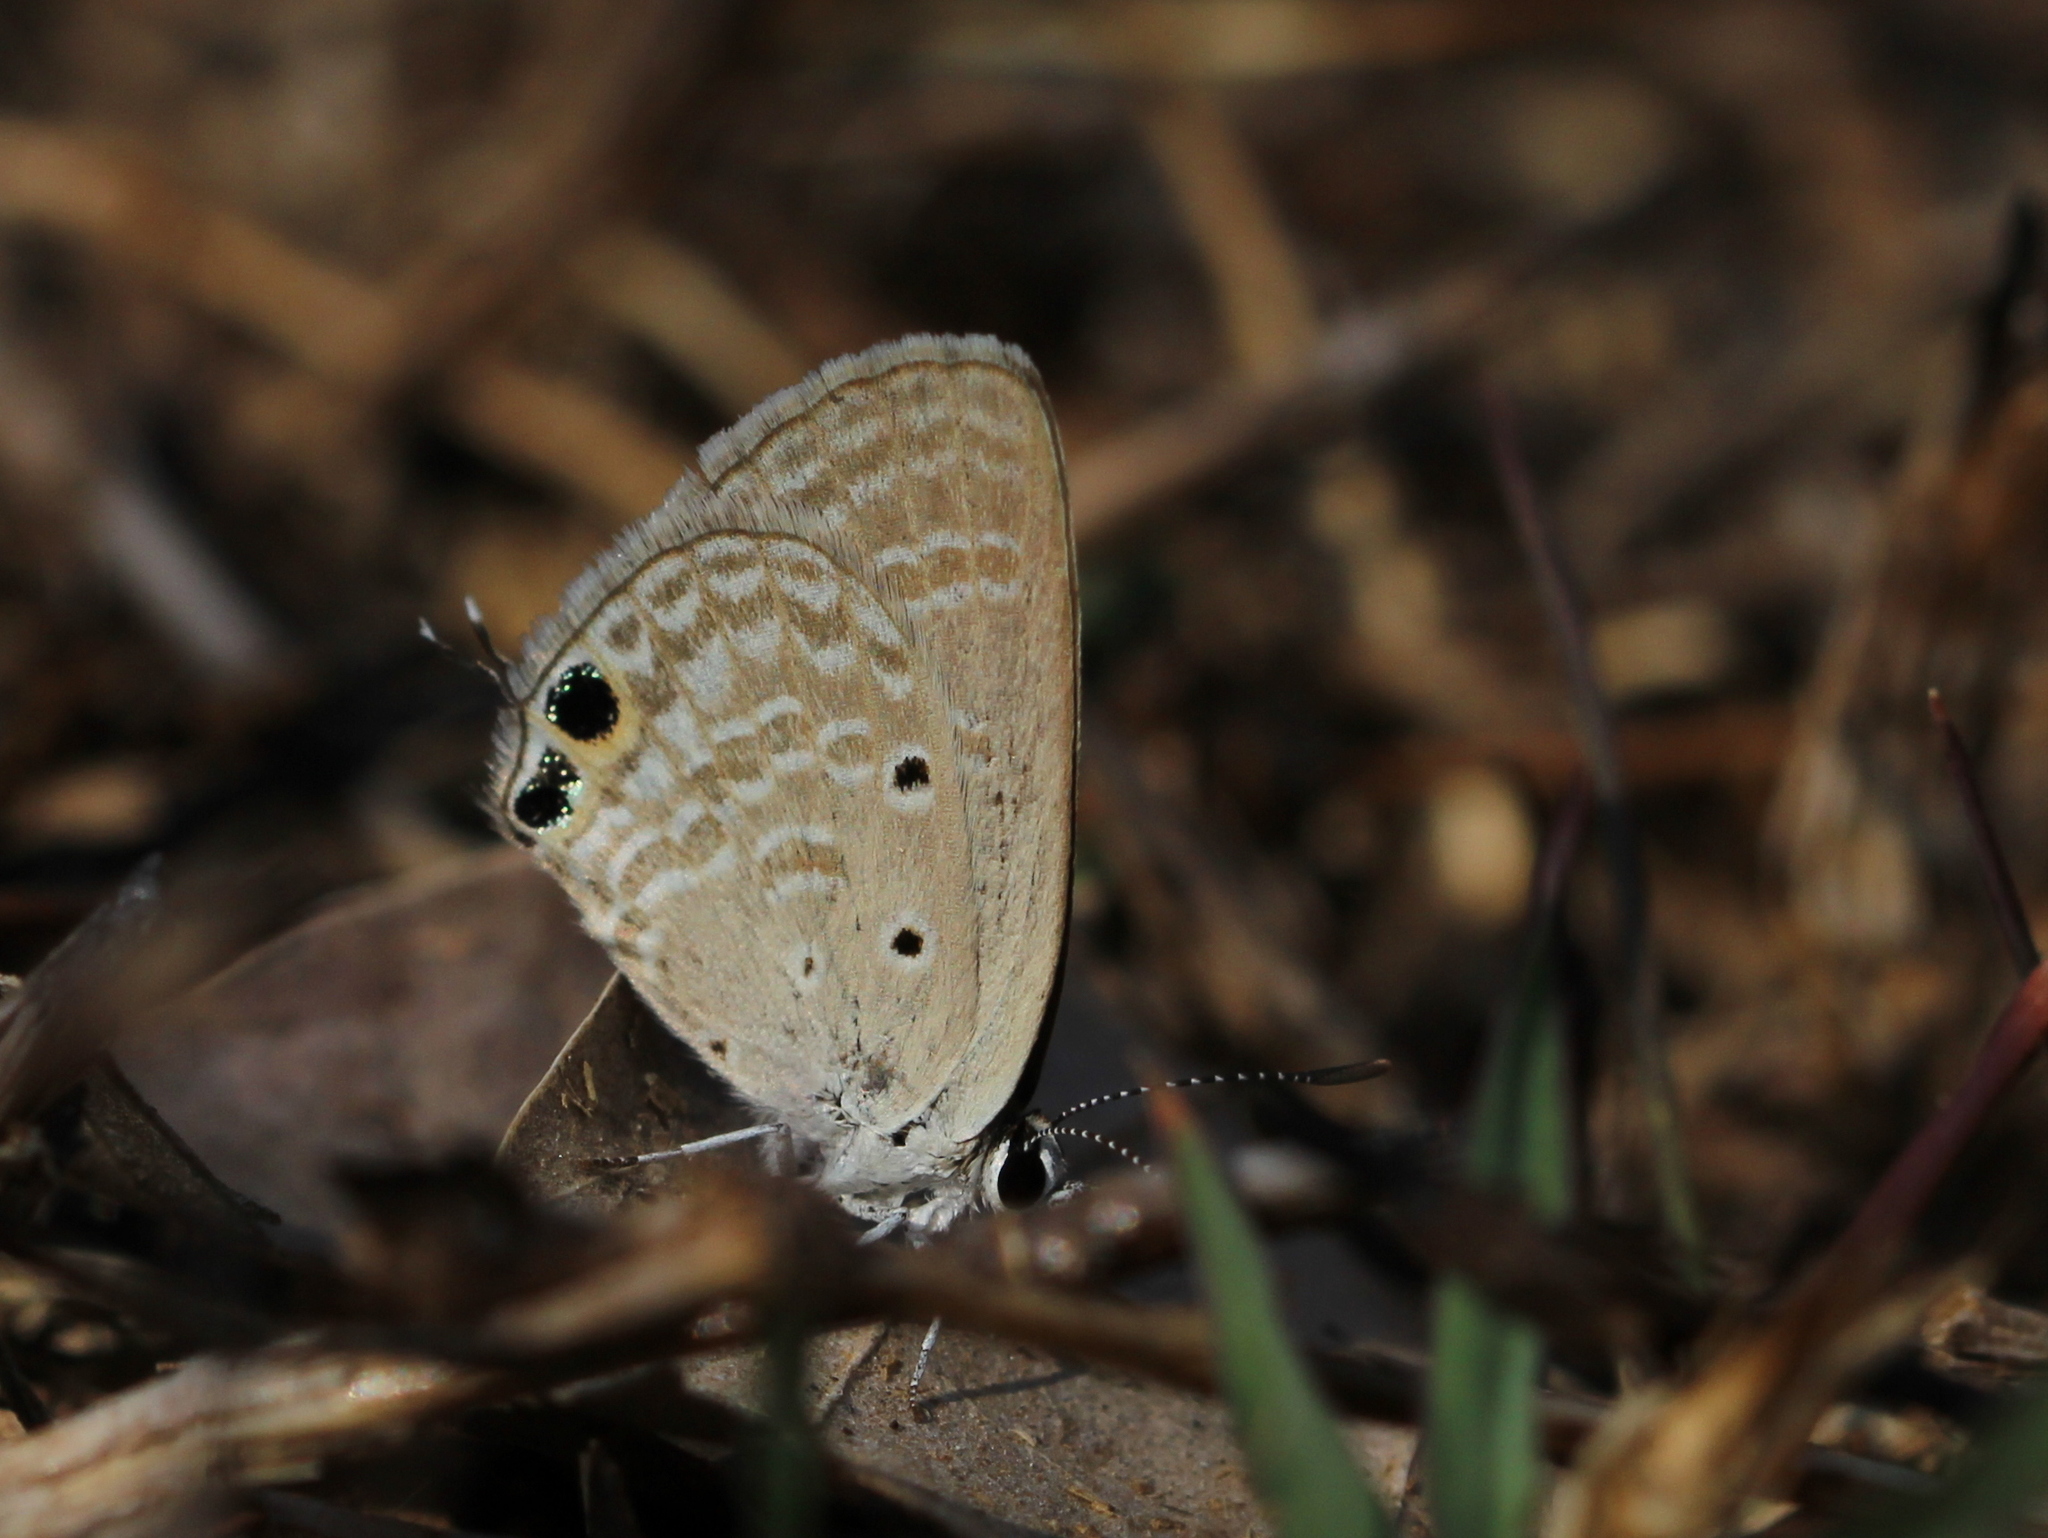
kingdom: Animalia
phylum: Arthropoda
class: Insecta
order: Lepidoptera
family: Lycaenidae
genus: Chilades
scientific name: Chilades parrhasius
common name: Small cupid
